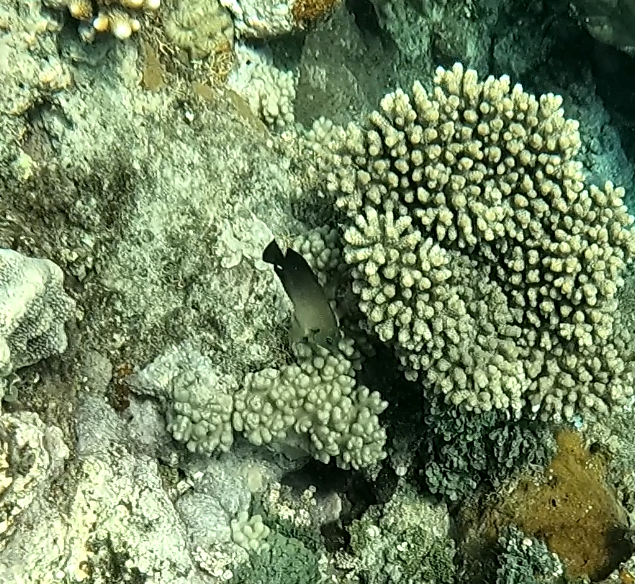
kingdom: Animalia
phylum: Chordata
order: Perciformes
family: Pomacanthidae
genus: Centropyge
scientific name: Centropyge vrolikii
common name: Pearlscale angelfish
